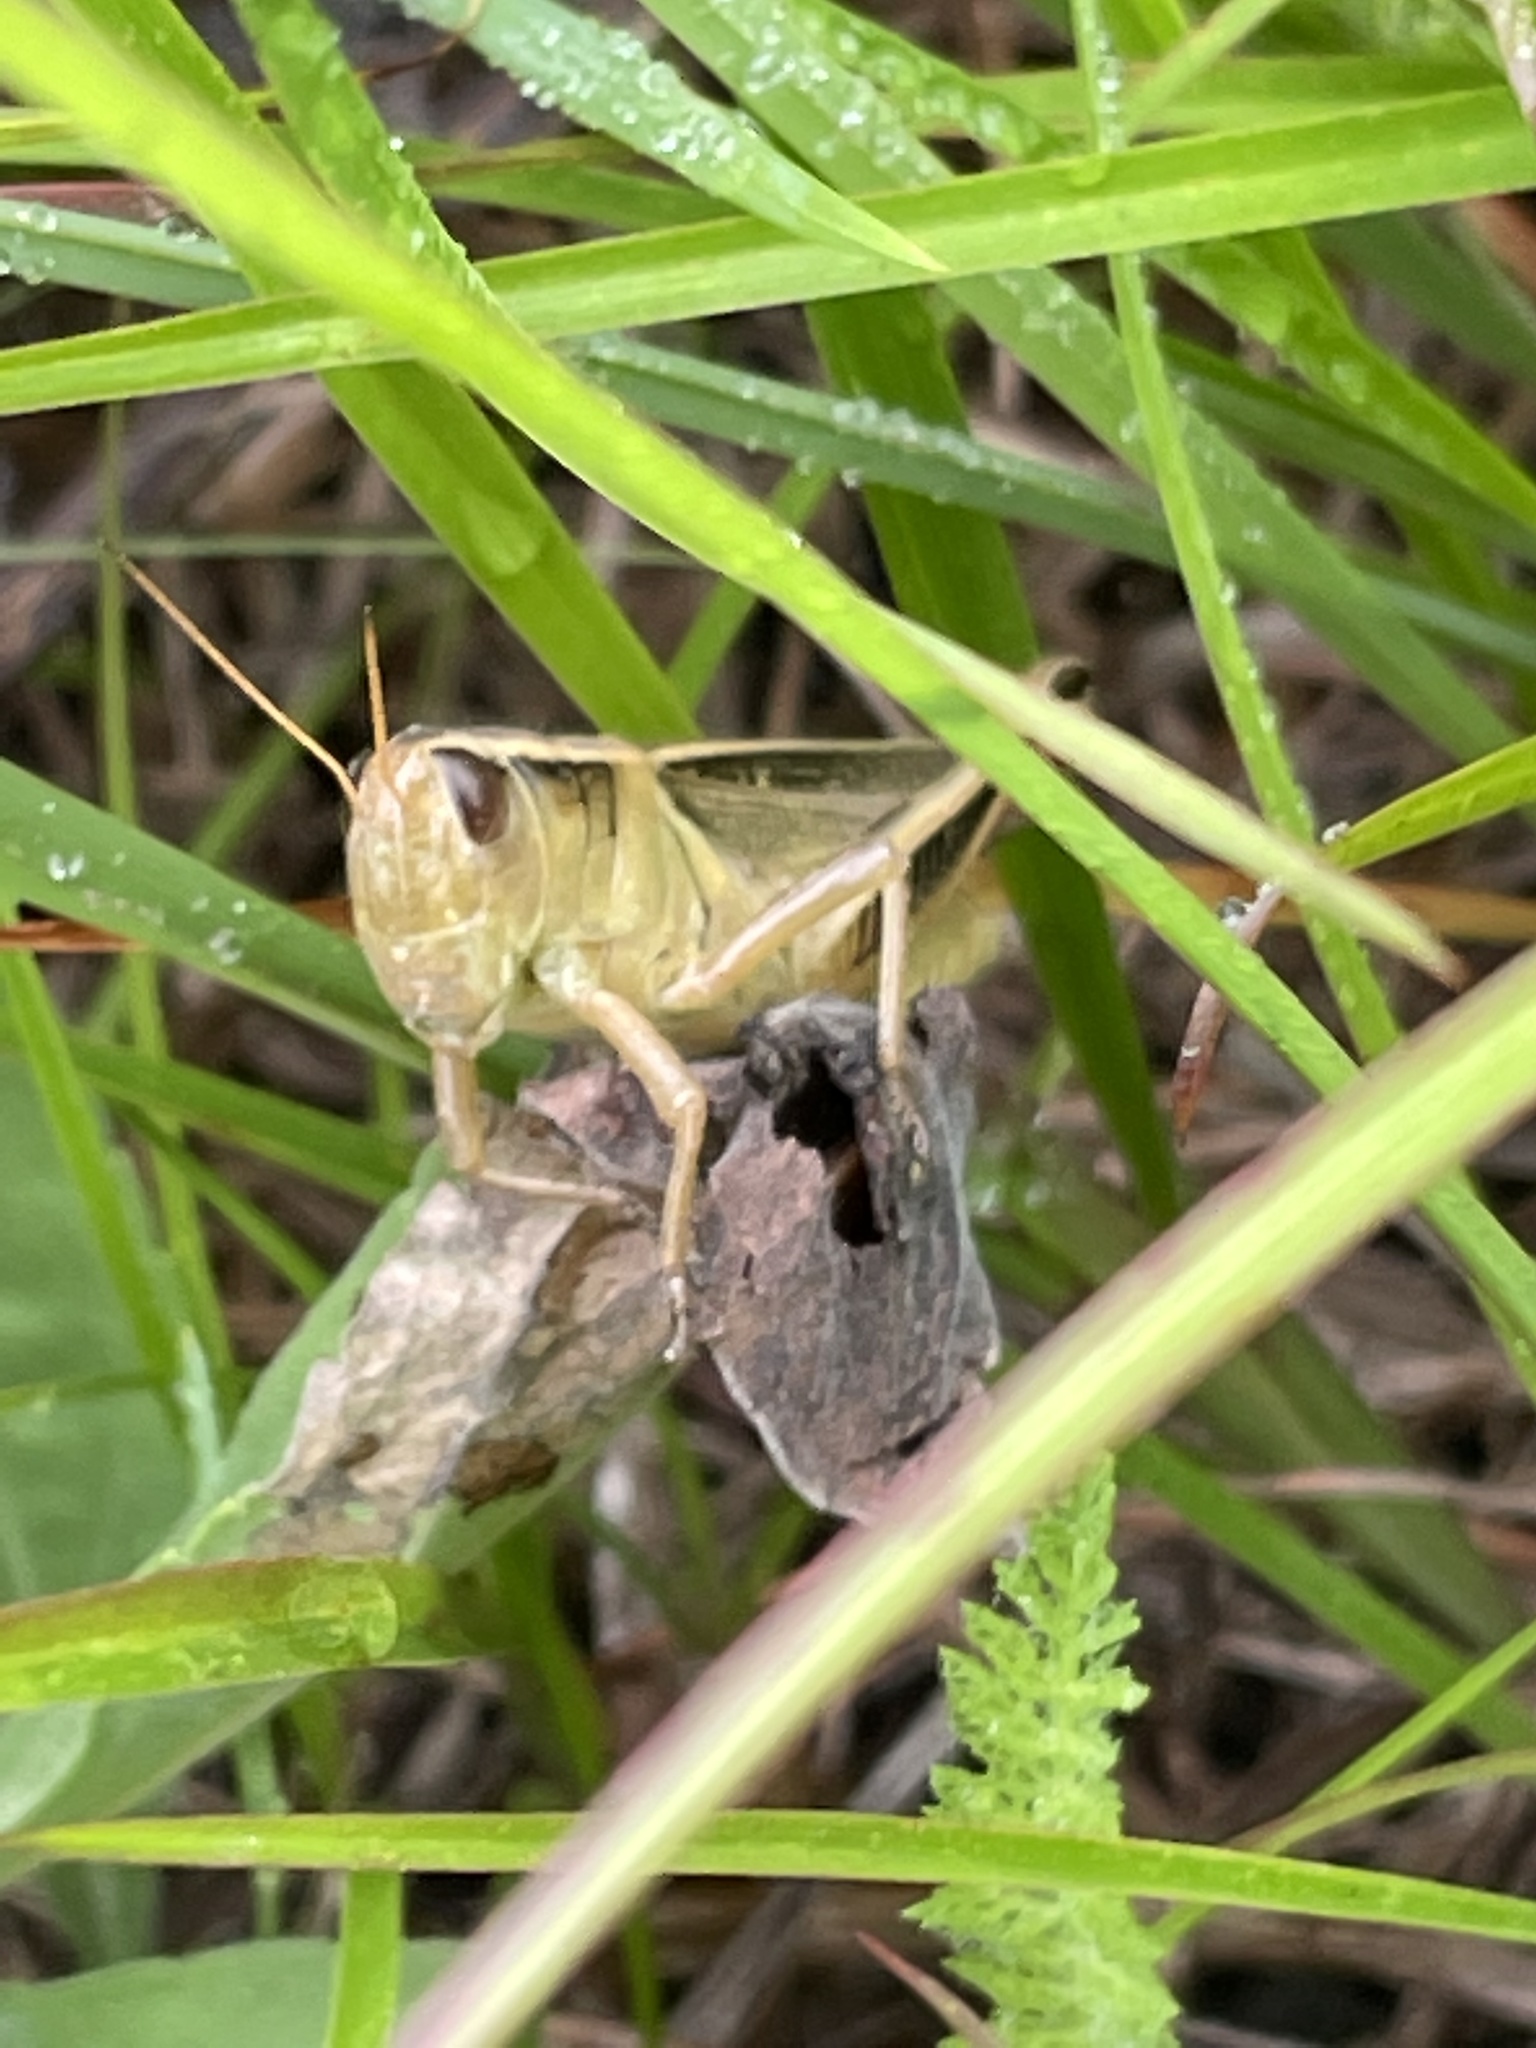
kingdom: Animalia
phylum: Arthropoda
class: Insecta
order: Orthoptera
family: Acrididae
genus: Melanoplus
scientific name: Melanoplus bivittatus
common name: Two-striped grasshopper
